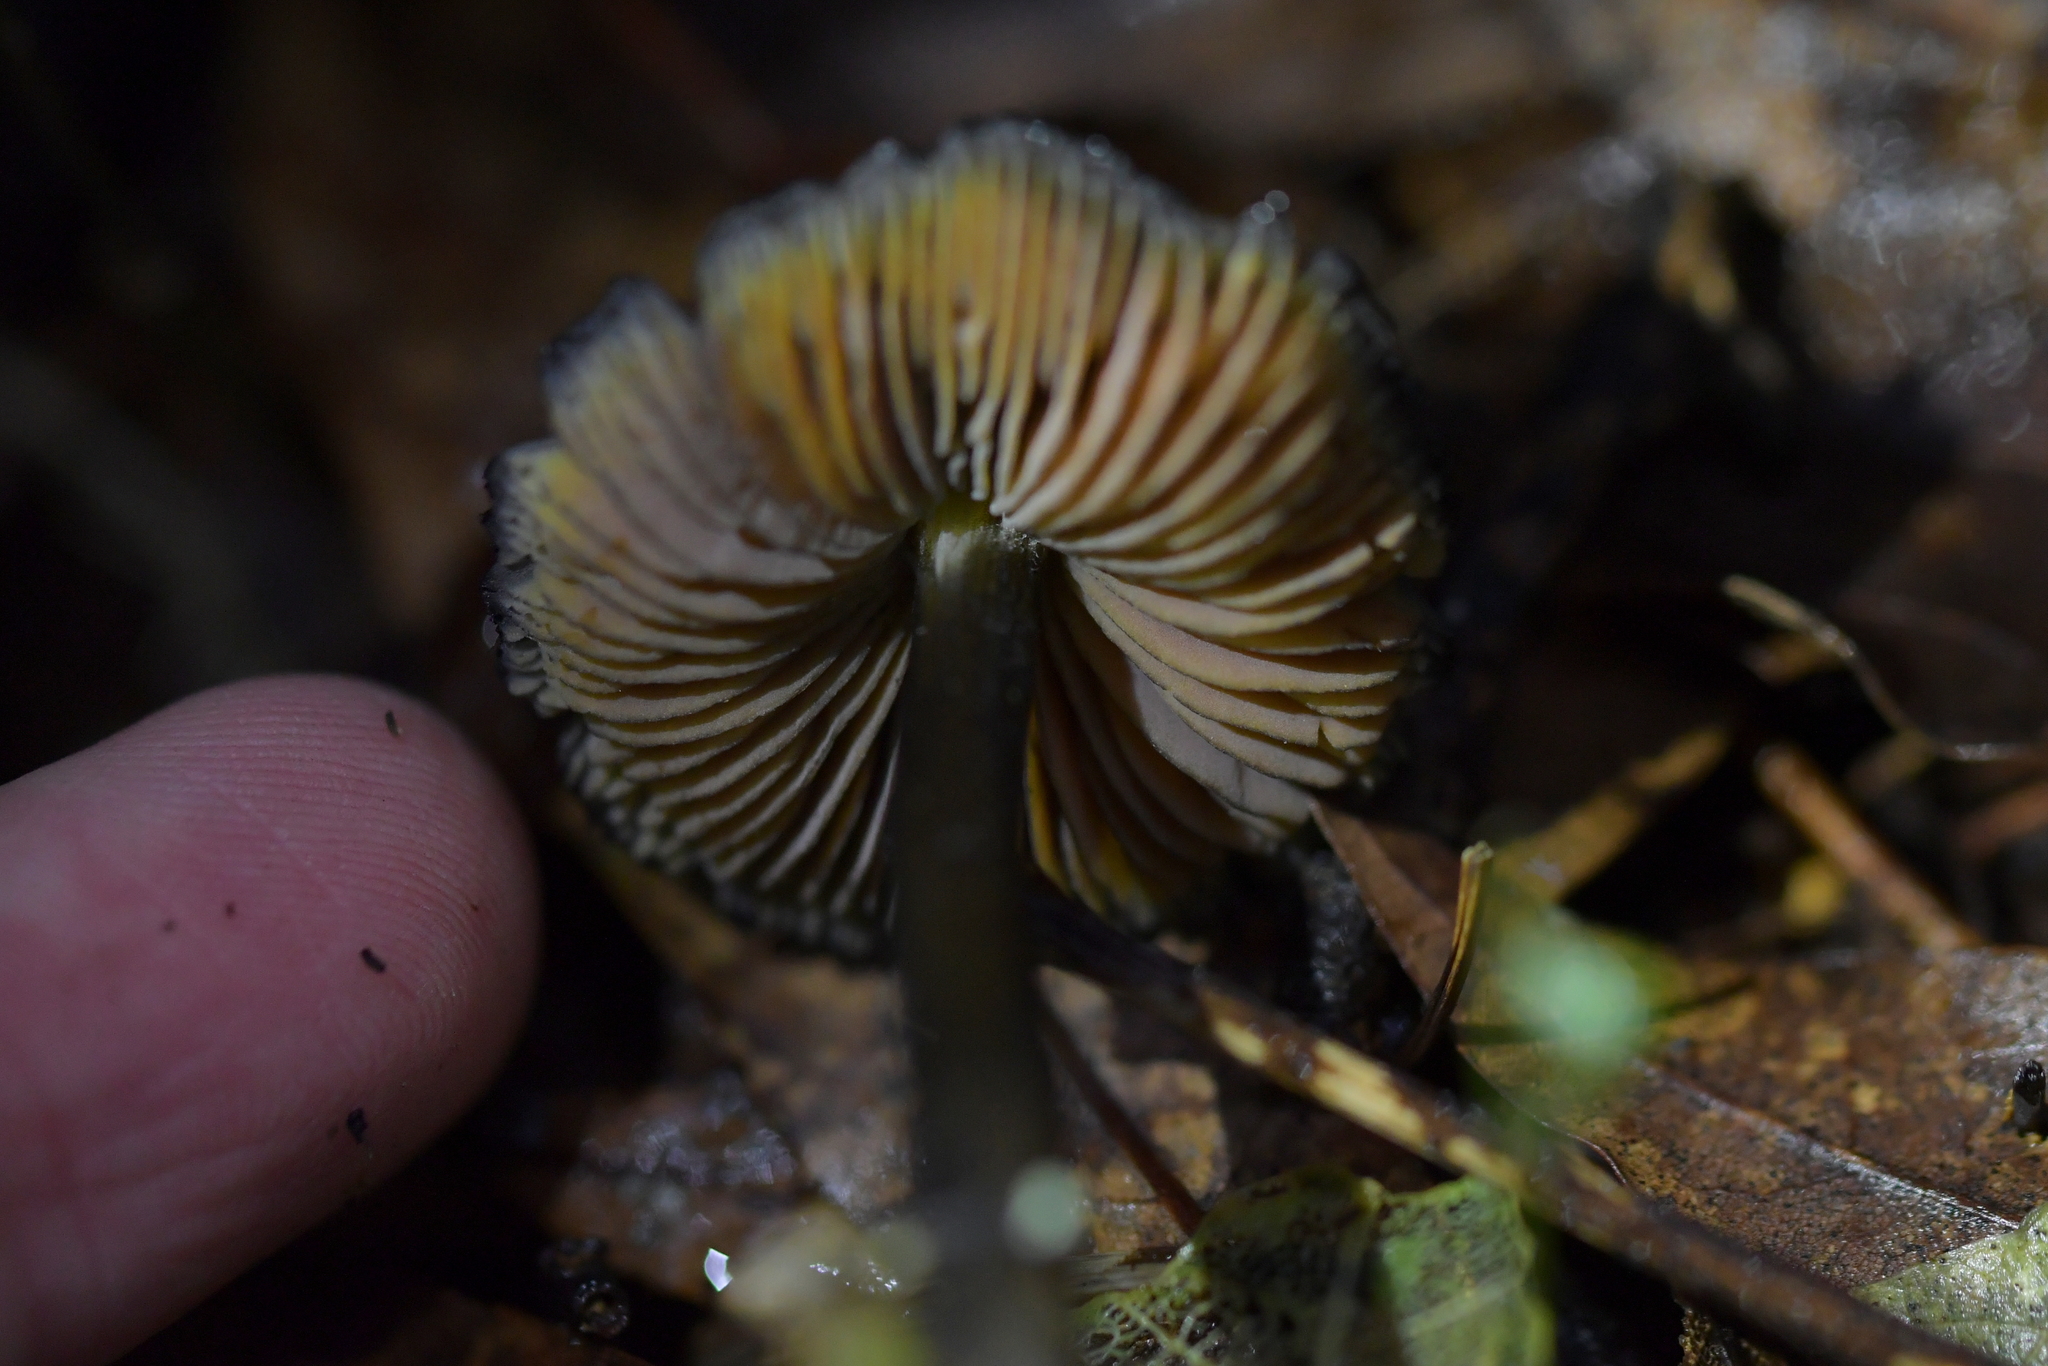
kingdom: Fungi
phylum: Basidiomycota
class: Agaricomycetes
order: Agaricales
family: Hygrophoraceae
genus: Hygrocybe
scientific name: Hygrocybe astatogala
